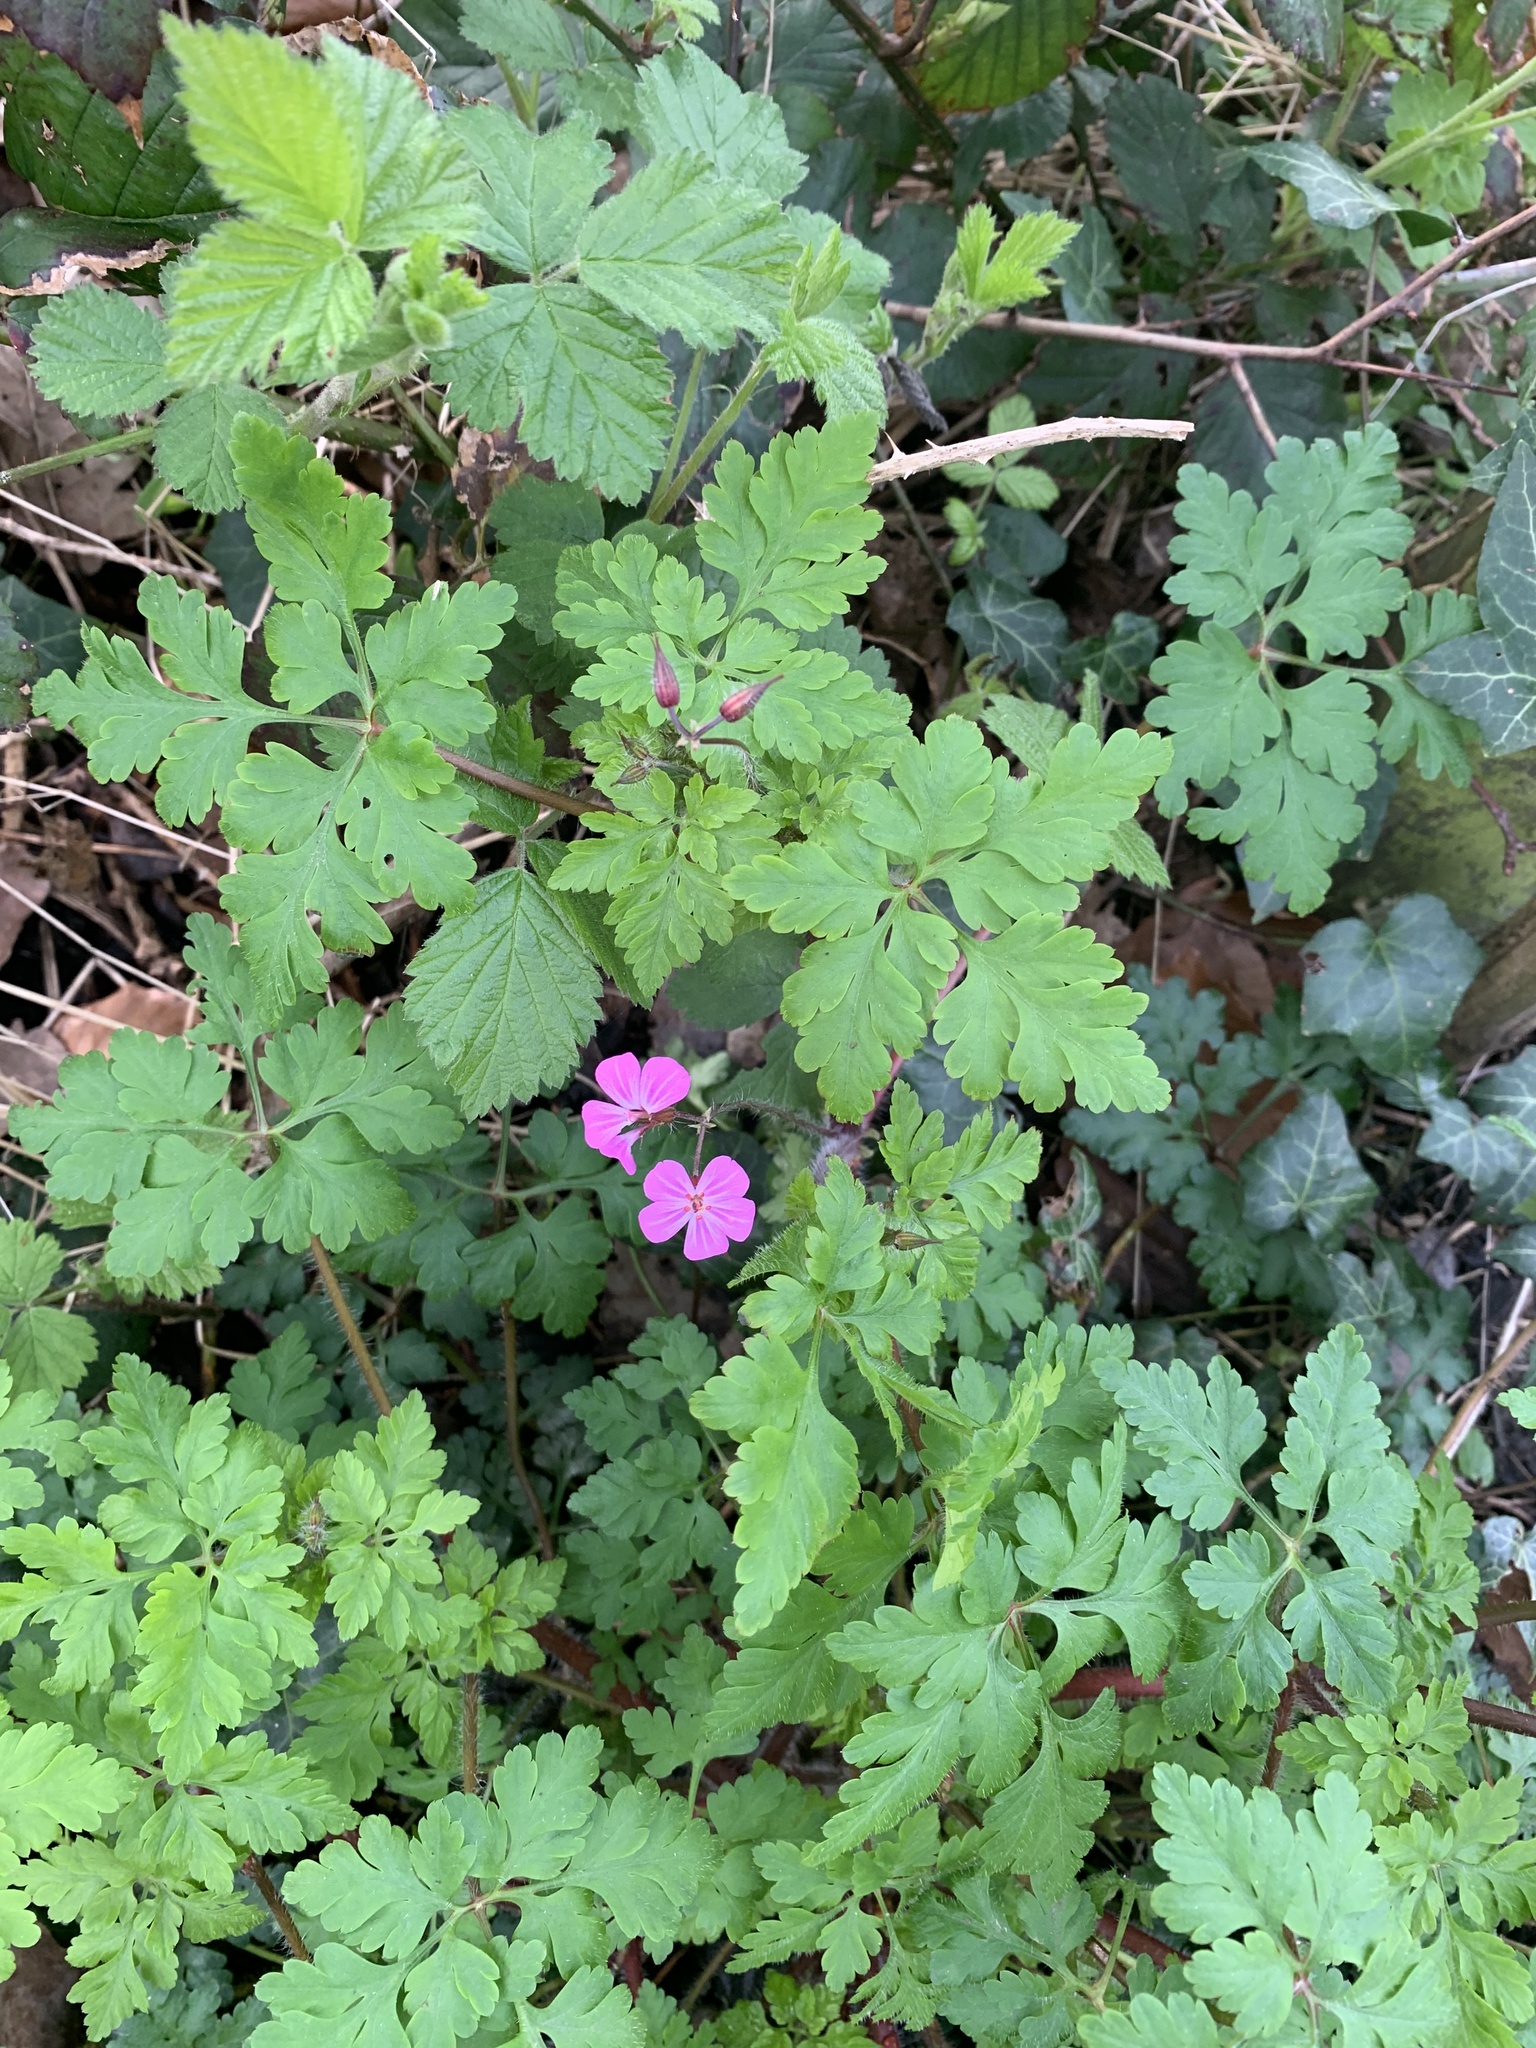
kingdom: Plantae
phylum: Tracheophyta
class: Magnoliopsida
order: Geraniales
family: Geraniaceae
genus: Geranium
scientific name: Geranium robertianum
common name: Herb-robert
